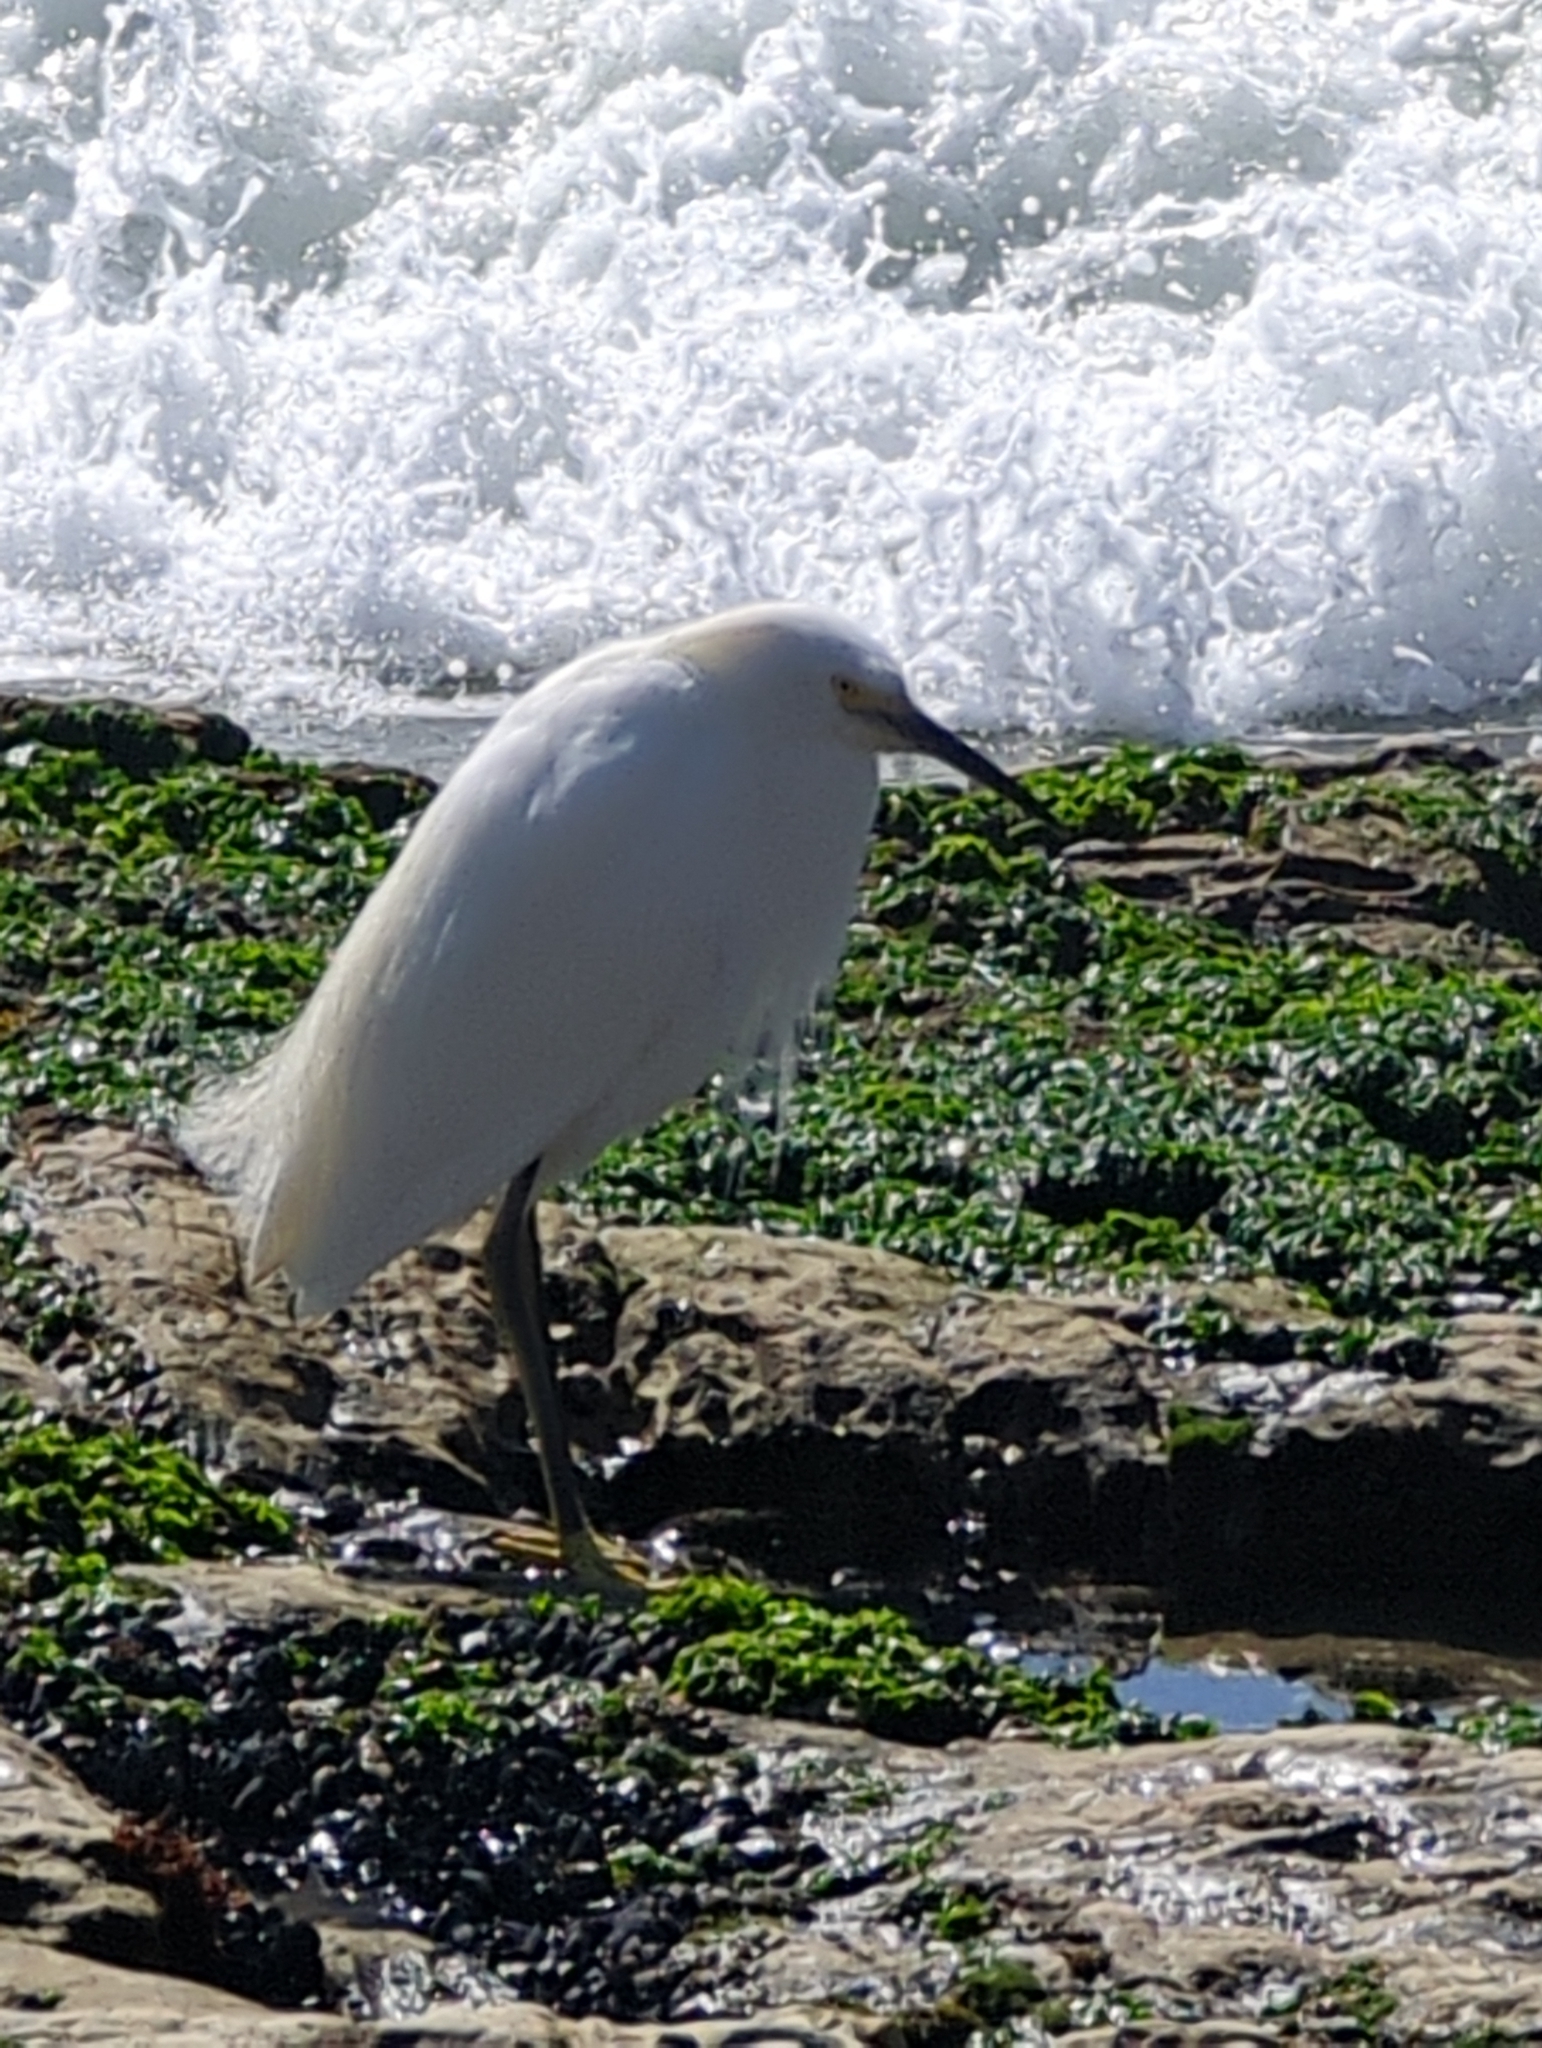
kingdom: Animalia
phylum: Chordata
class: Aves
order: Pelecaniformes
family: Ardeidae
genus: Egretta
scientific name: Egretta thula
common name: Snowy egret
